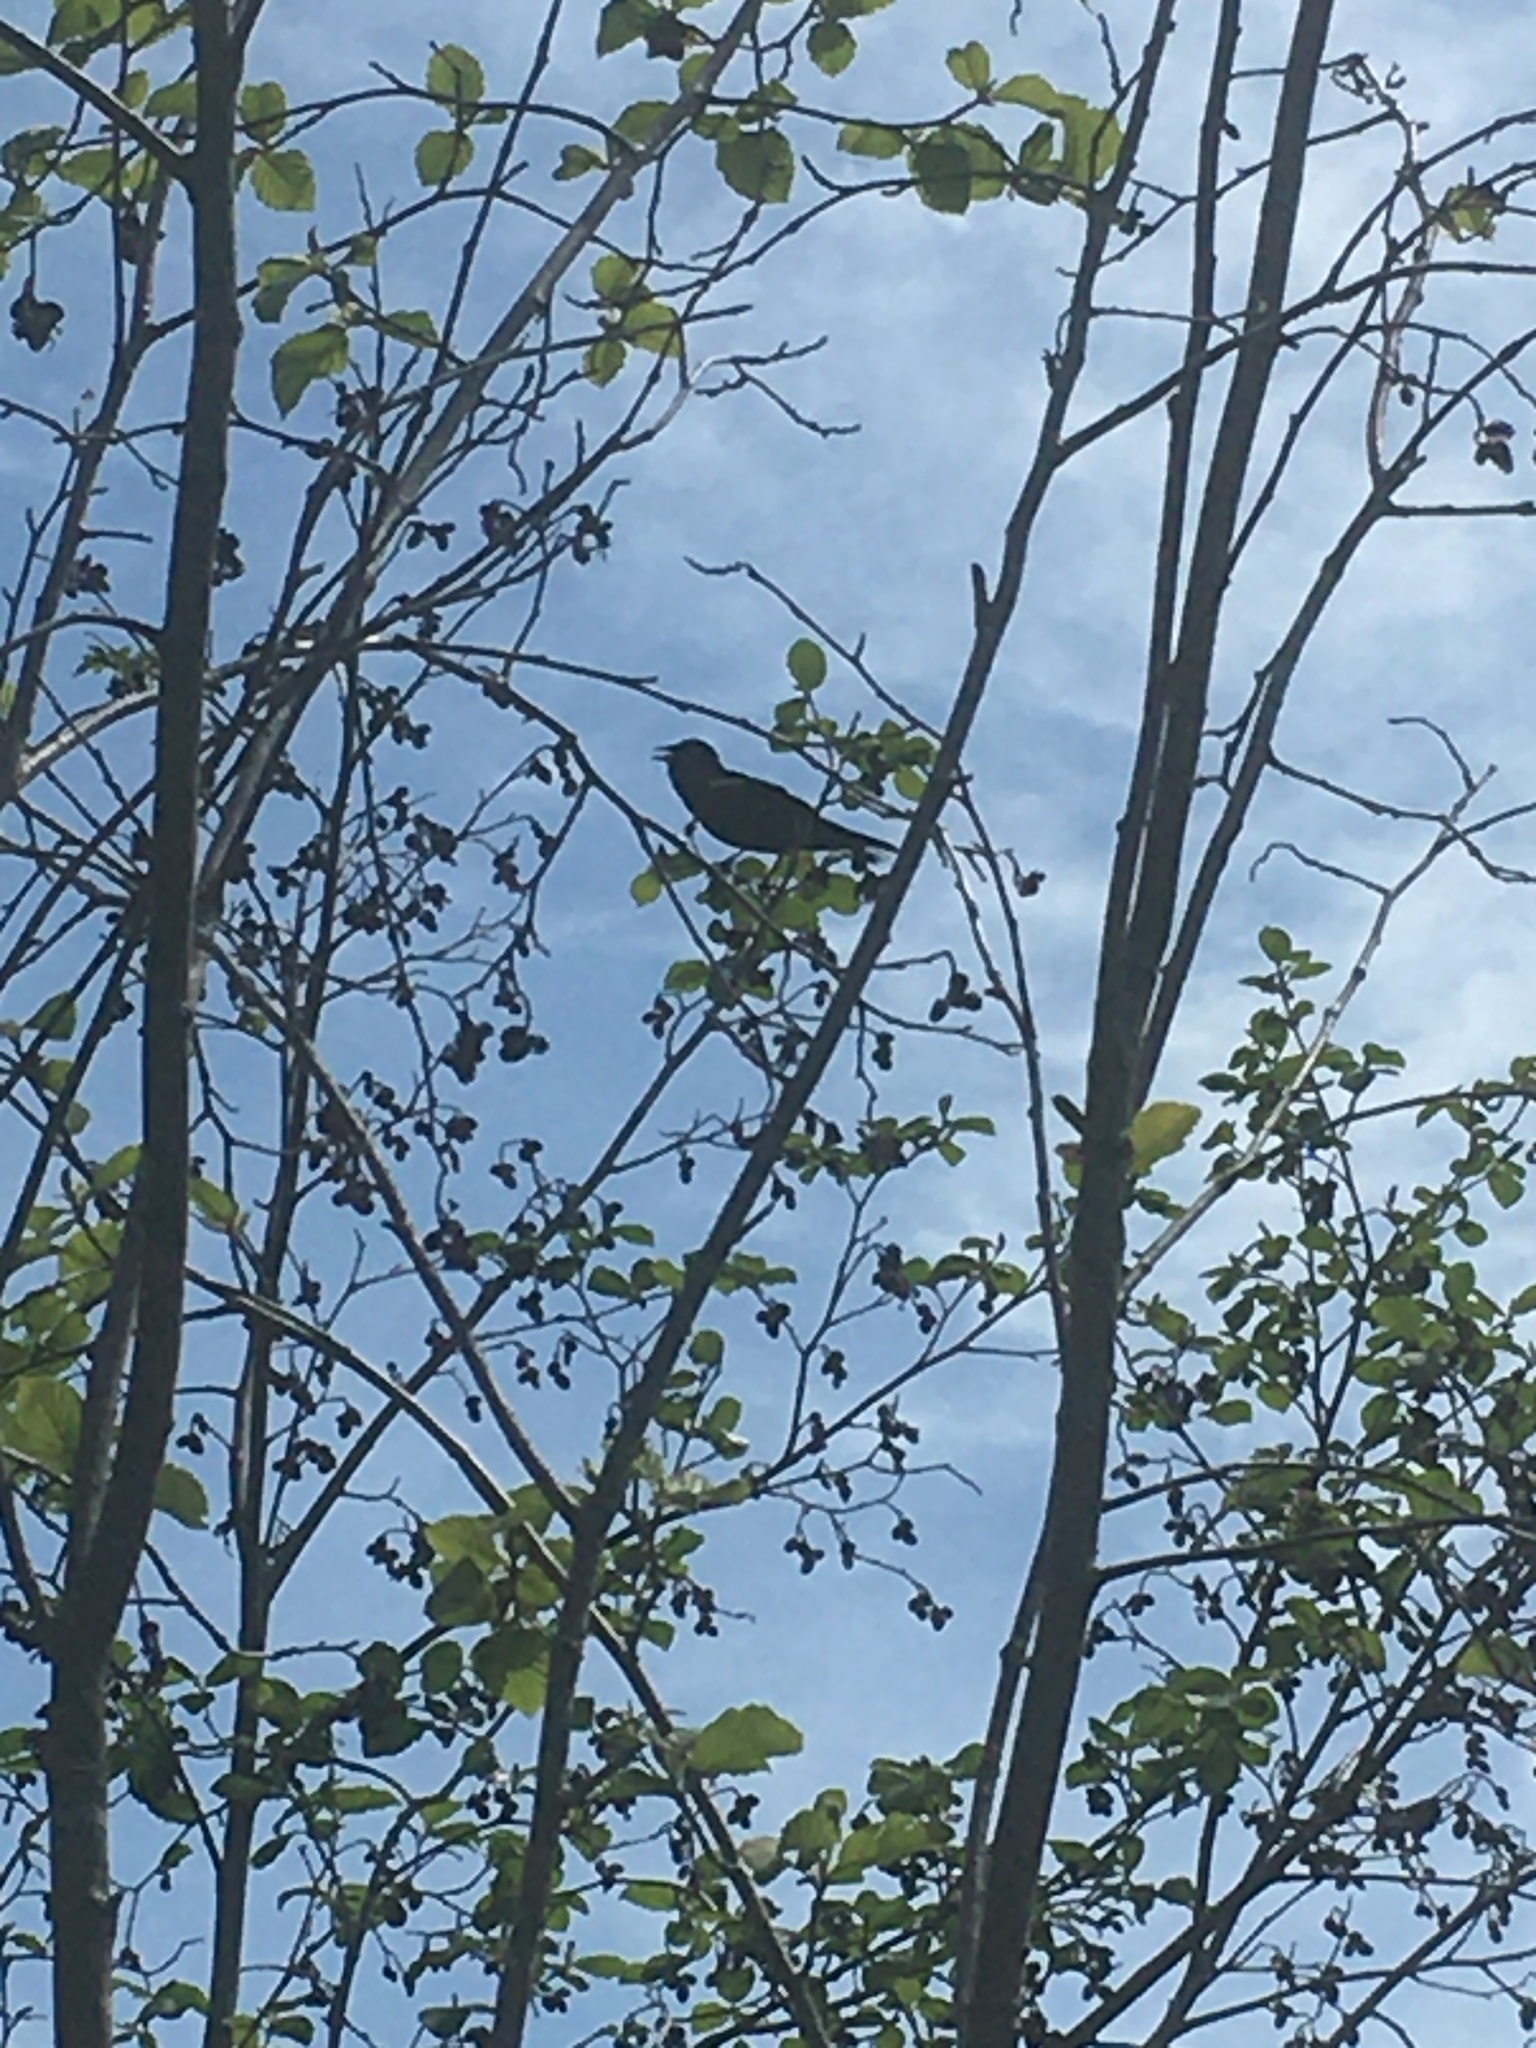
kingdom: Animalia
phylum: Chordata
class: Aves
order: Passeriformes
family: Icteridae
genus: Agelaius
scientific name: Agelaius phoeniceus
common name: Red-winged blackbird
